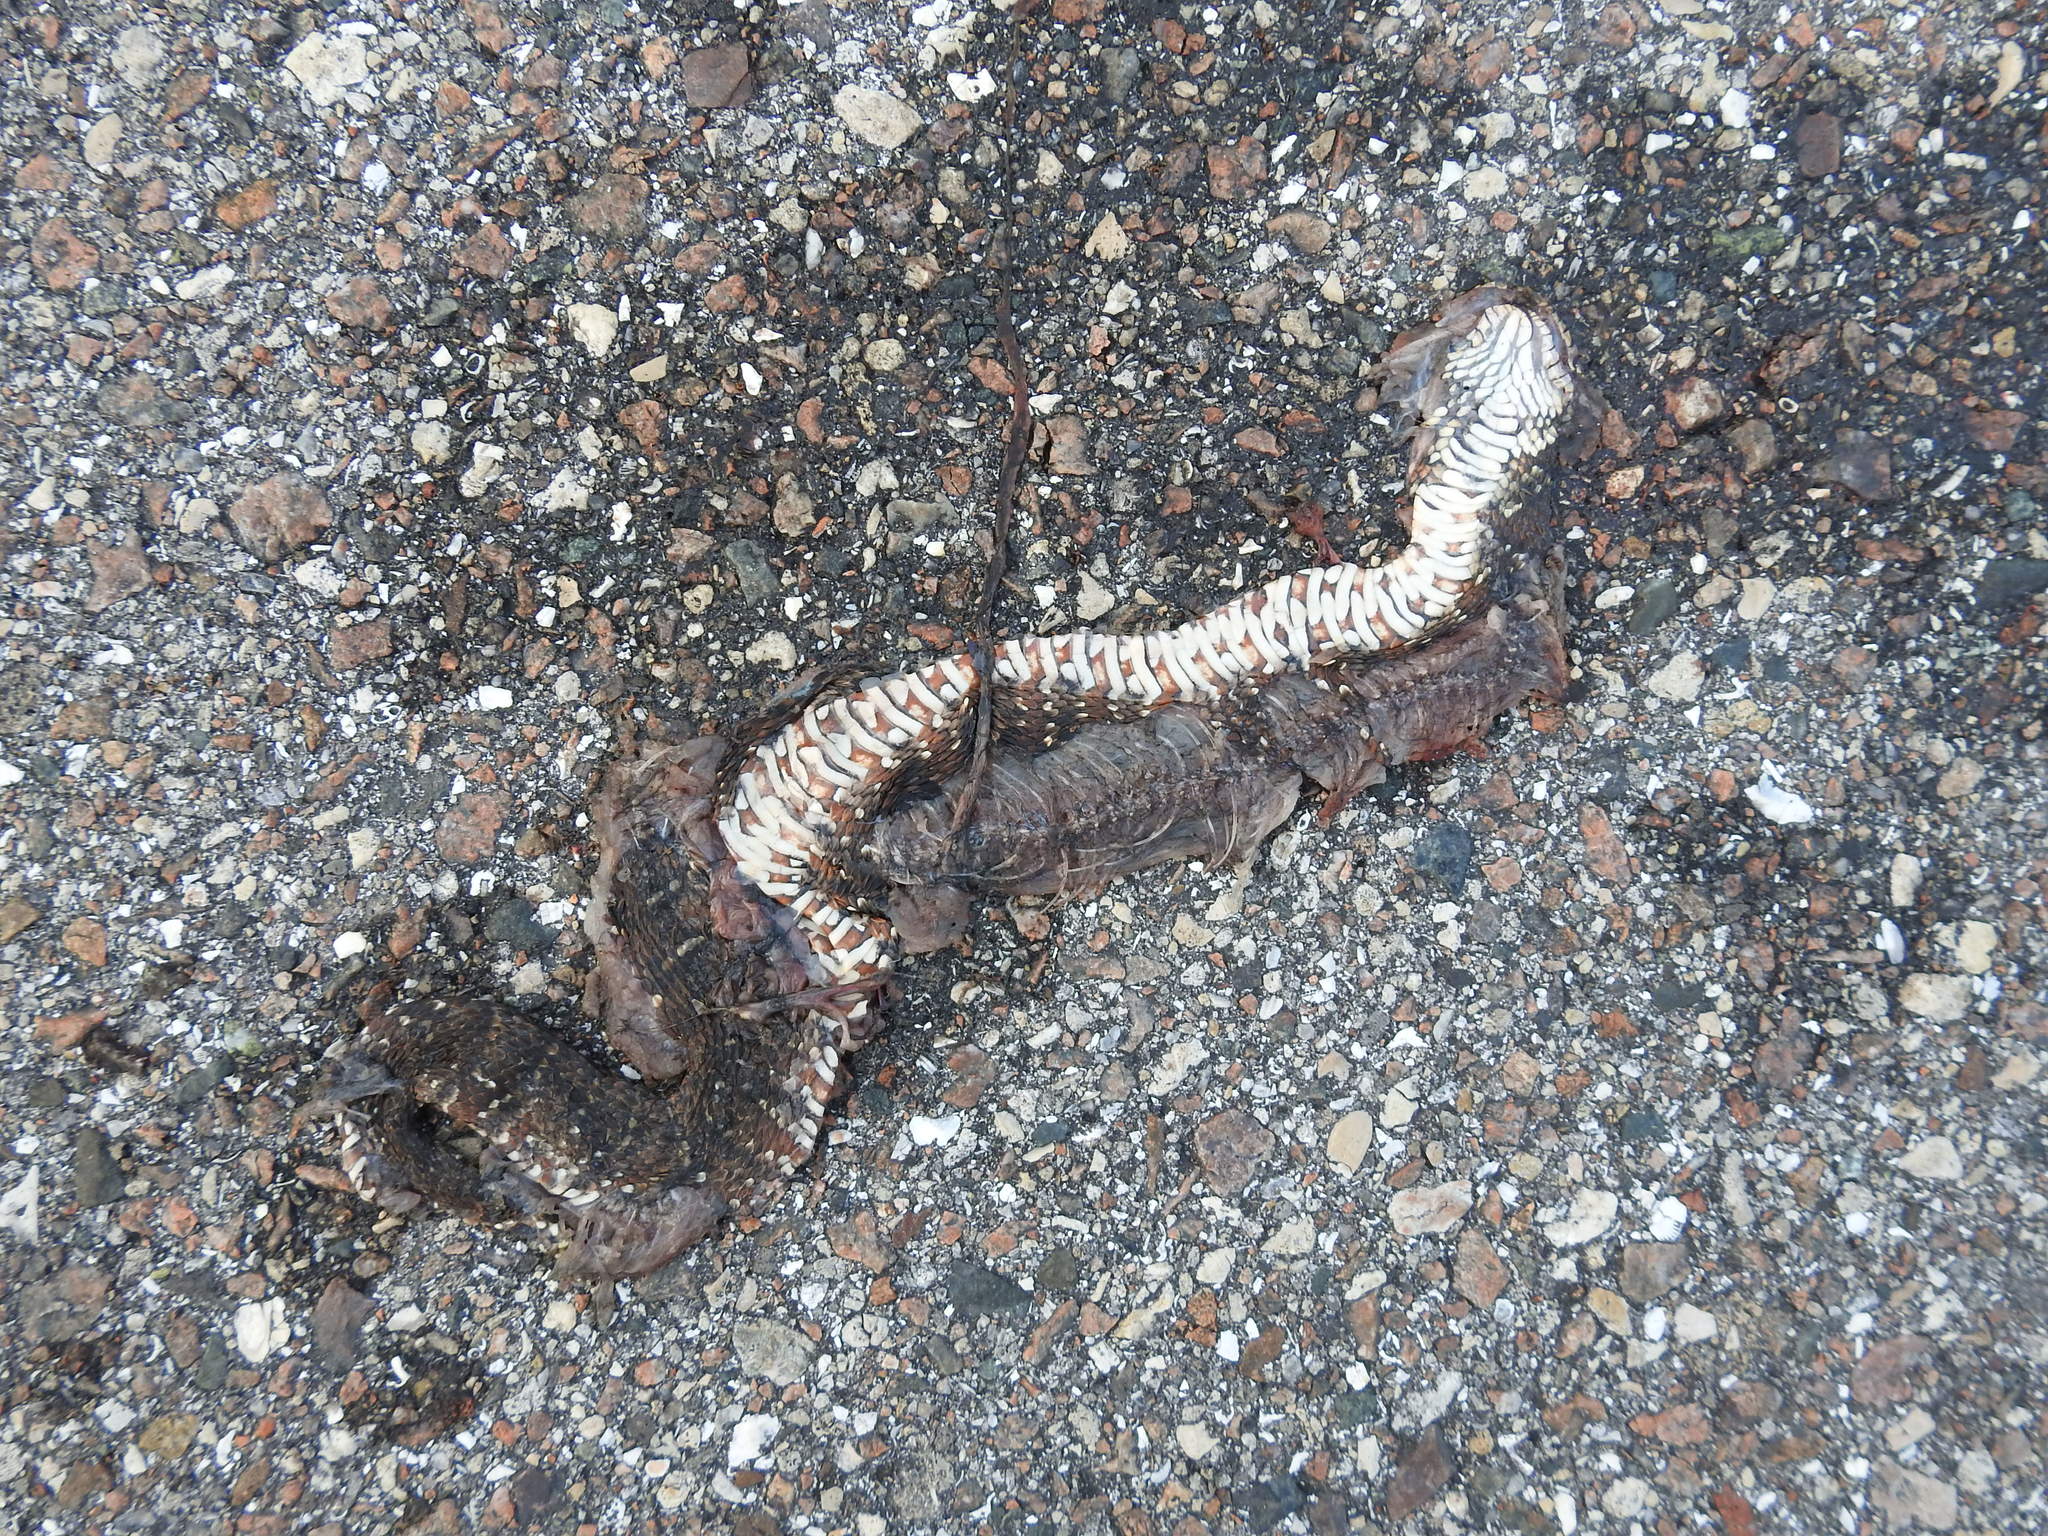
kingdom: Animalia
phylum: Chordata
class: Squamata
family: Colubridae
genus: Nerodia
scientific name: Nerodia fasciata
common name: Southern water snake
